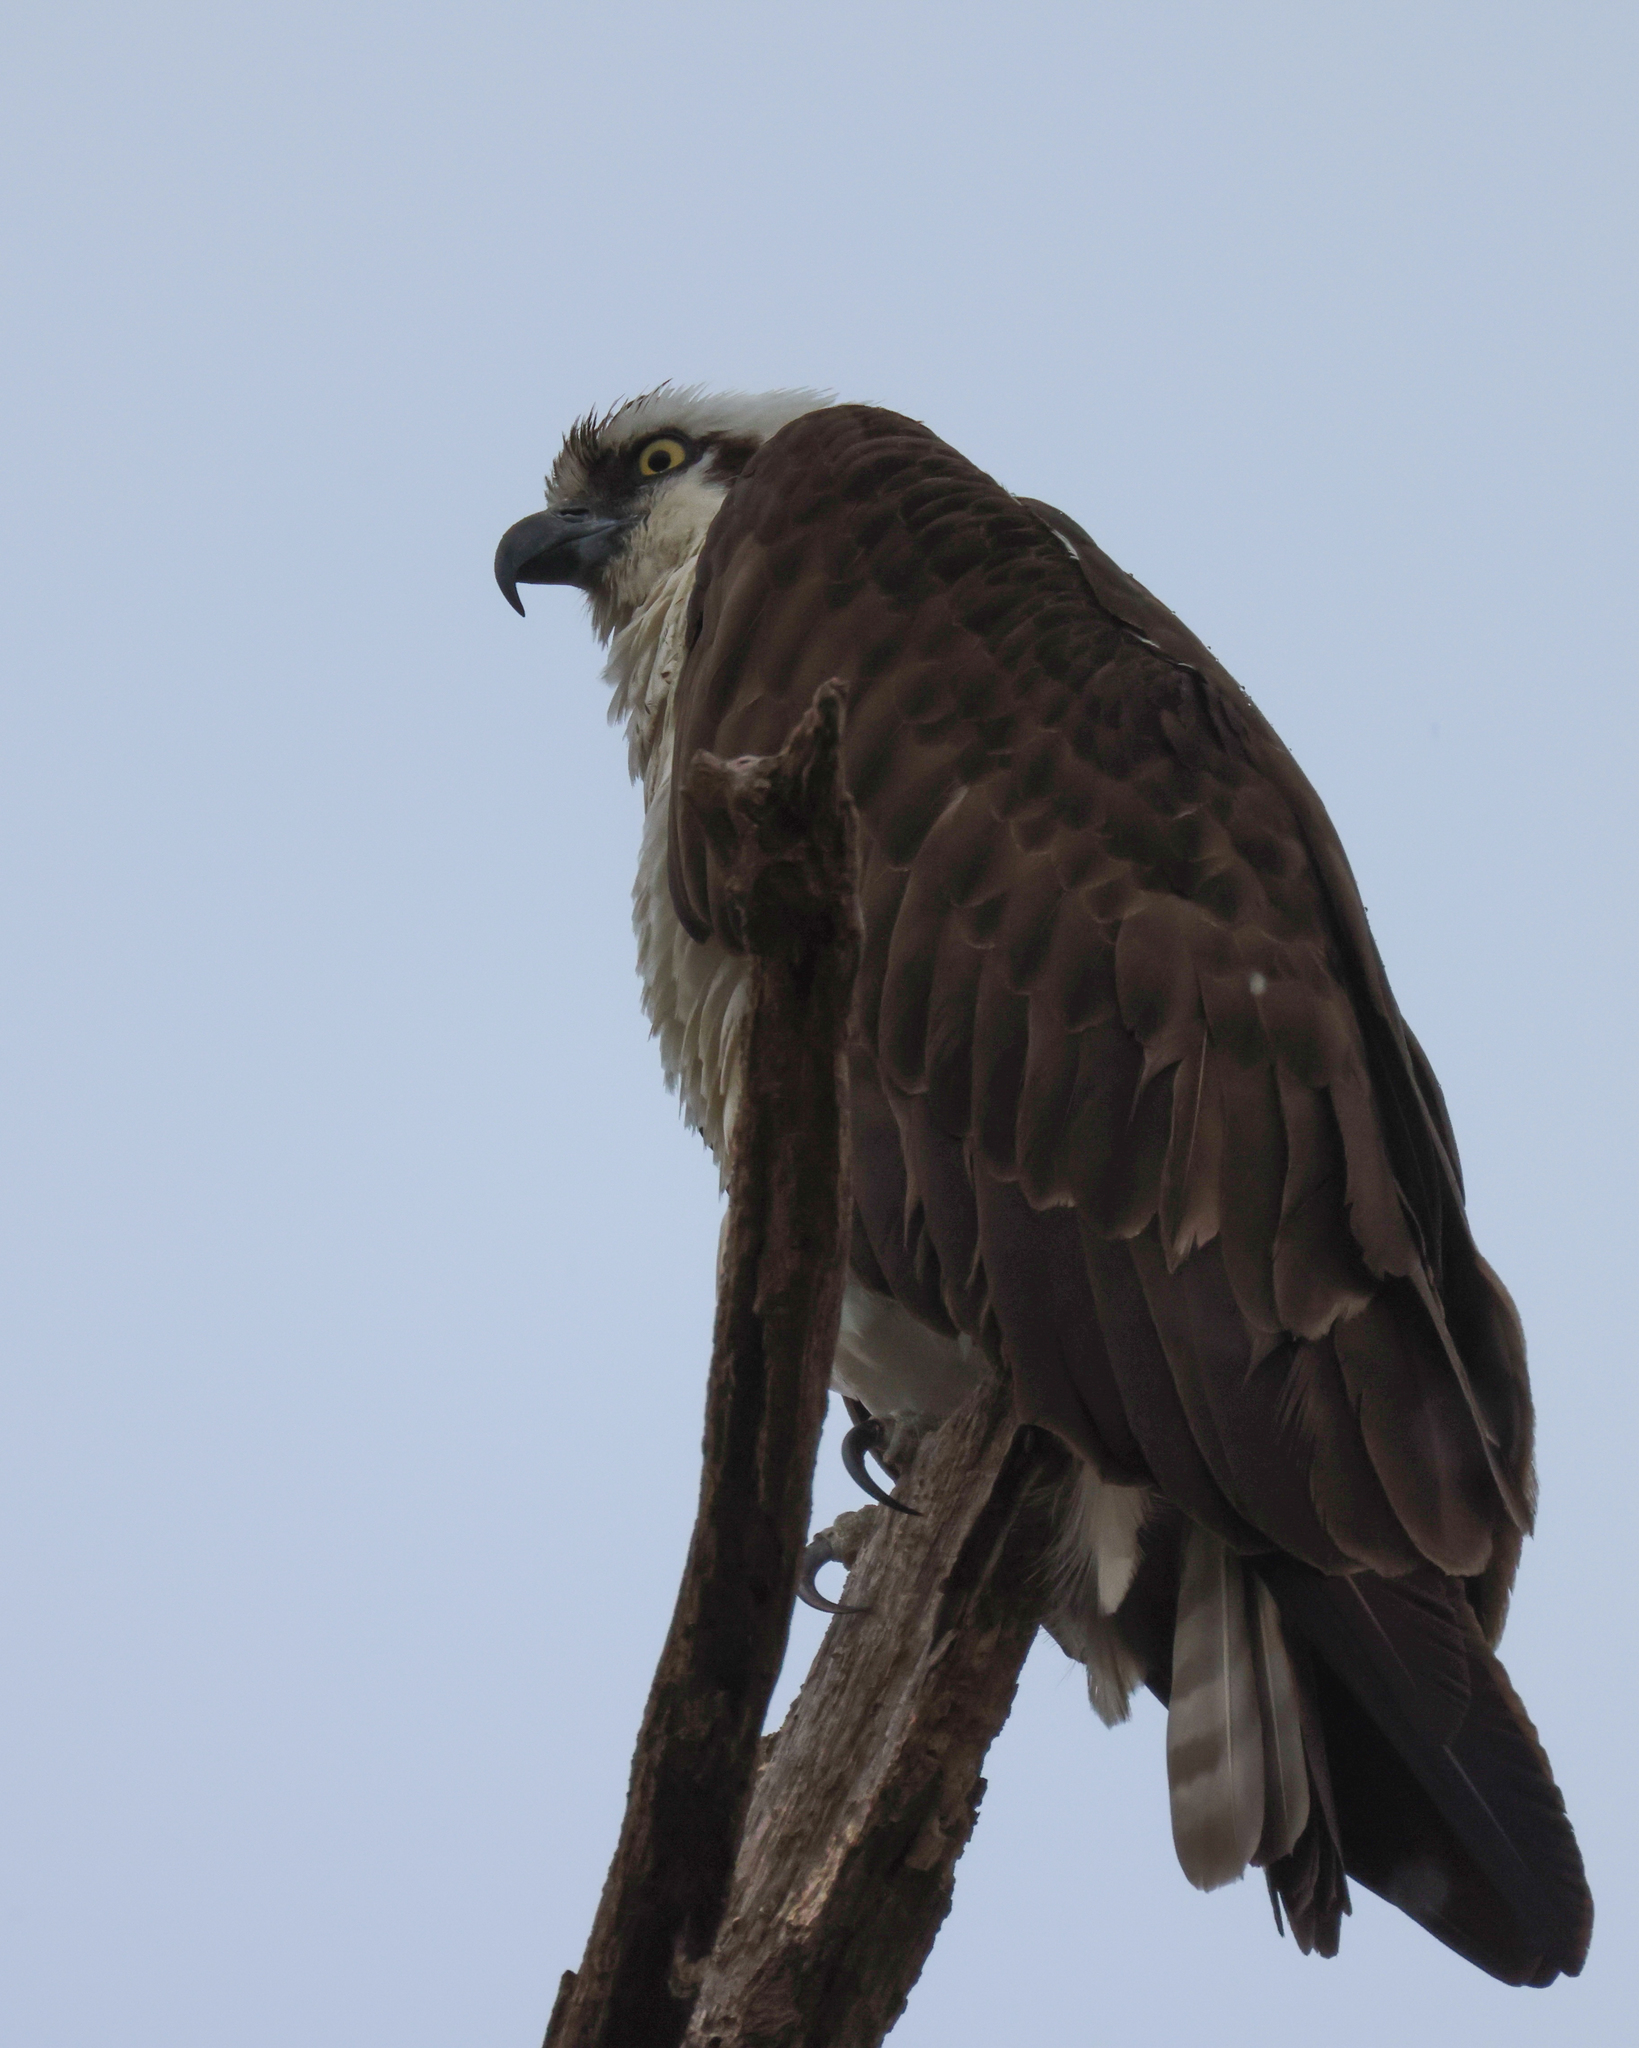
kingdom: Animalia
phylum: Chordata
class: Aves
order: Accipitriformes
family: Pandionidae
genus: Pandion
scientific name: Pandion haliaetus
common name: Osprey
